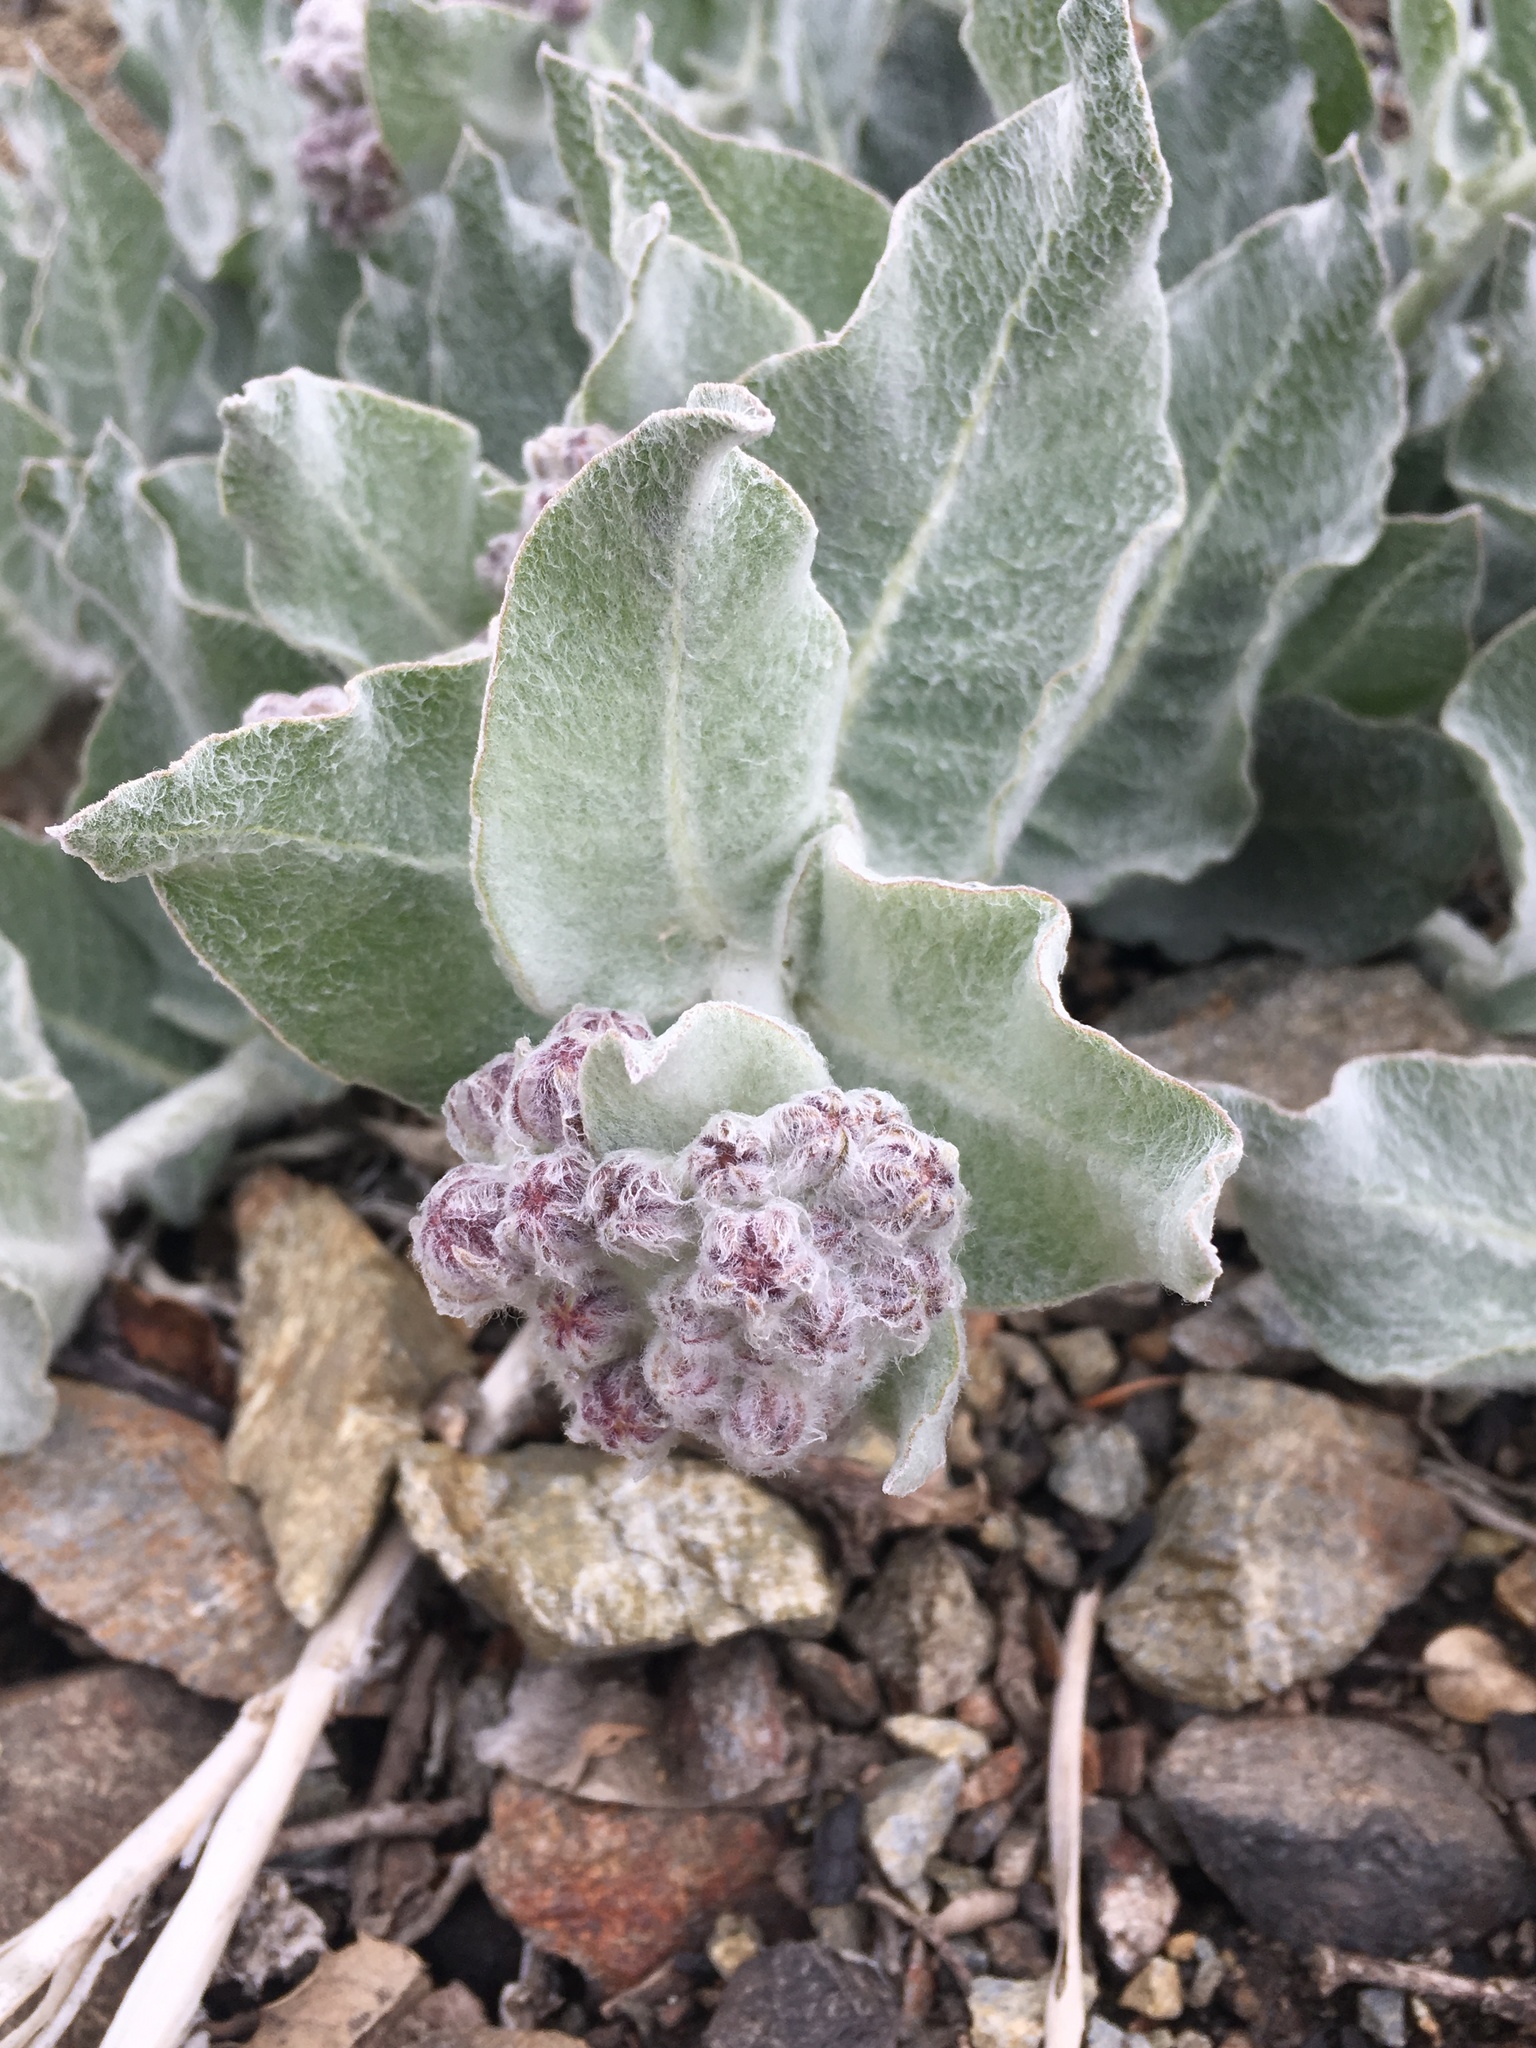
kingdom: Plantae
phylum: Tracheophyta
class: Magnoliopsida
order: Gentianales
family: Apocynaceae
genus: Asclepias
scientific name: Asclepias californica
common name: California milkweed
